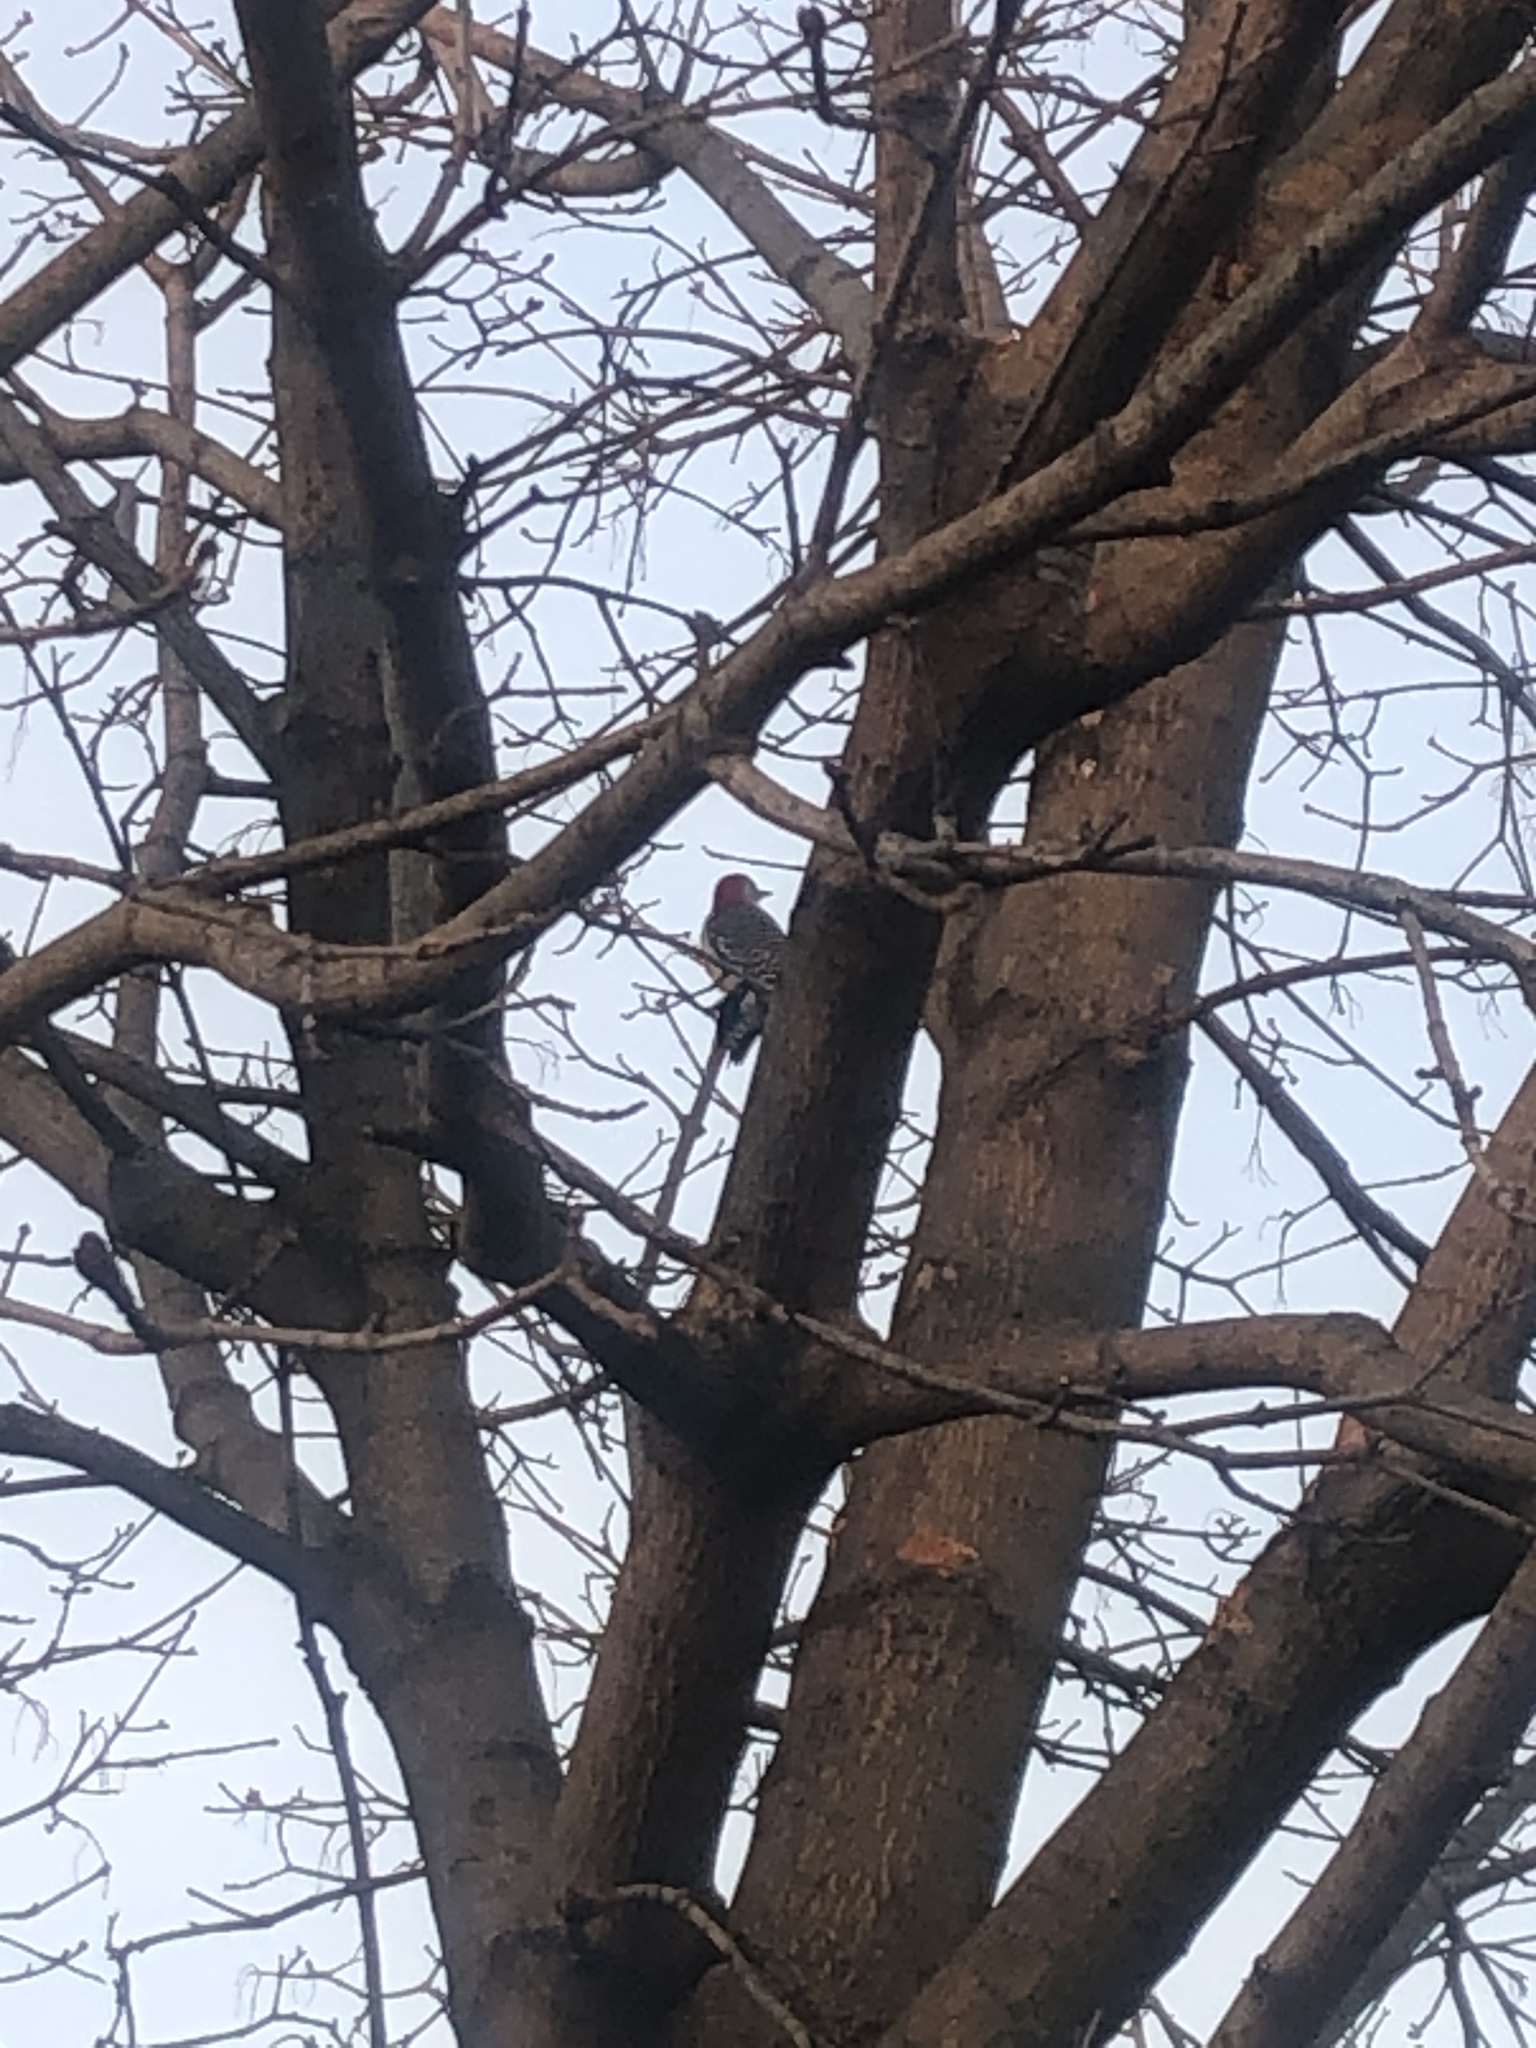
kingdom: Animalia
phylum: Chordata
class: Aves
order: Piciformes
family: Picidae
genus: Melanerpes
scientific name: Melanerpes carolinus
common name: Red-bellied woodpecker
